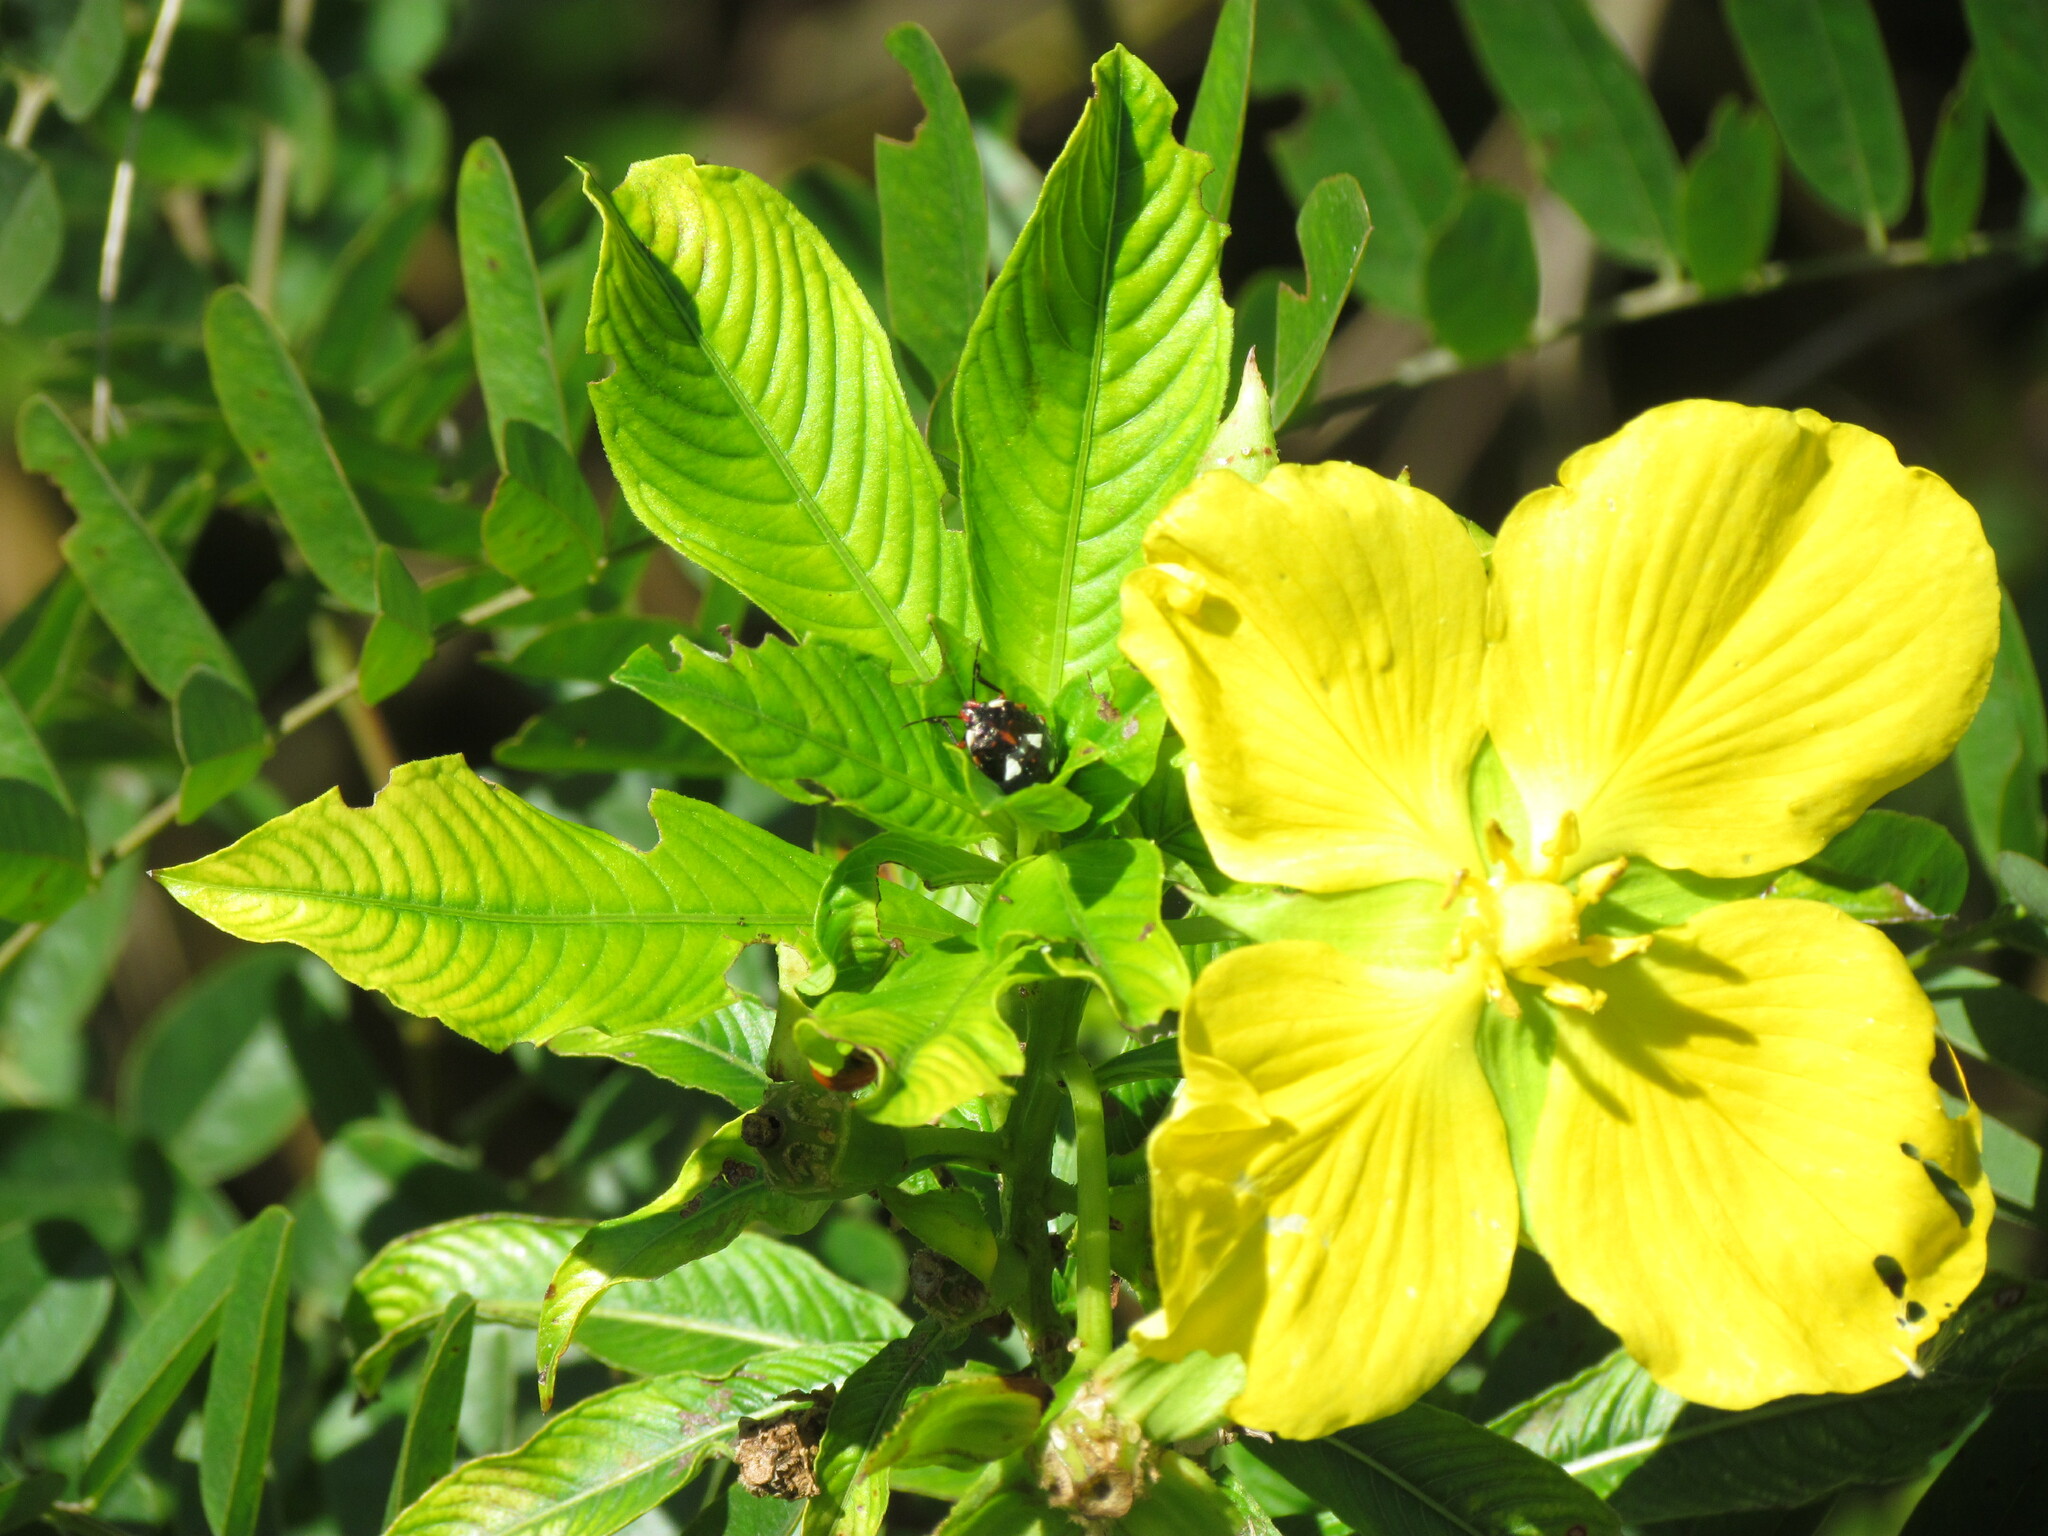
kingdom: Animalia
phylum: Arthropoda
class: Insecta
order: Hemiptera
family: Pentatomidae
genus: Chinavia
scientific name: Chinavia erythrocnemis
